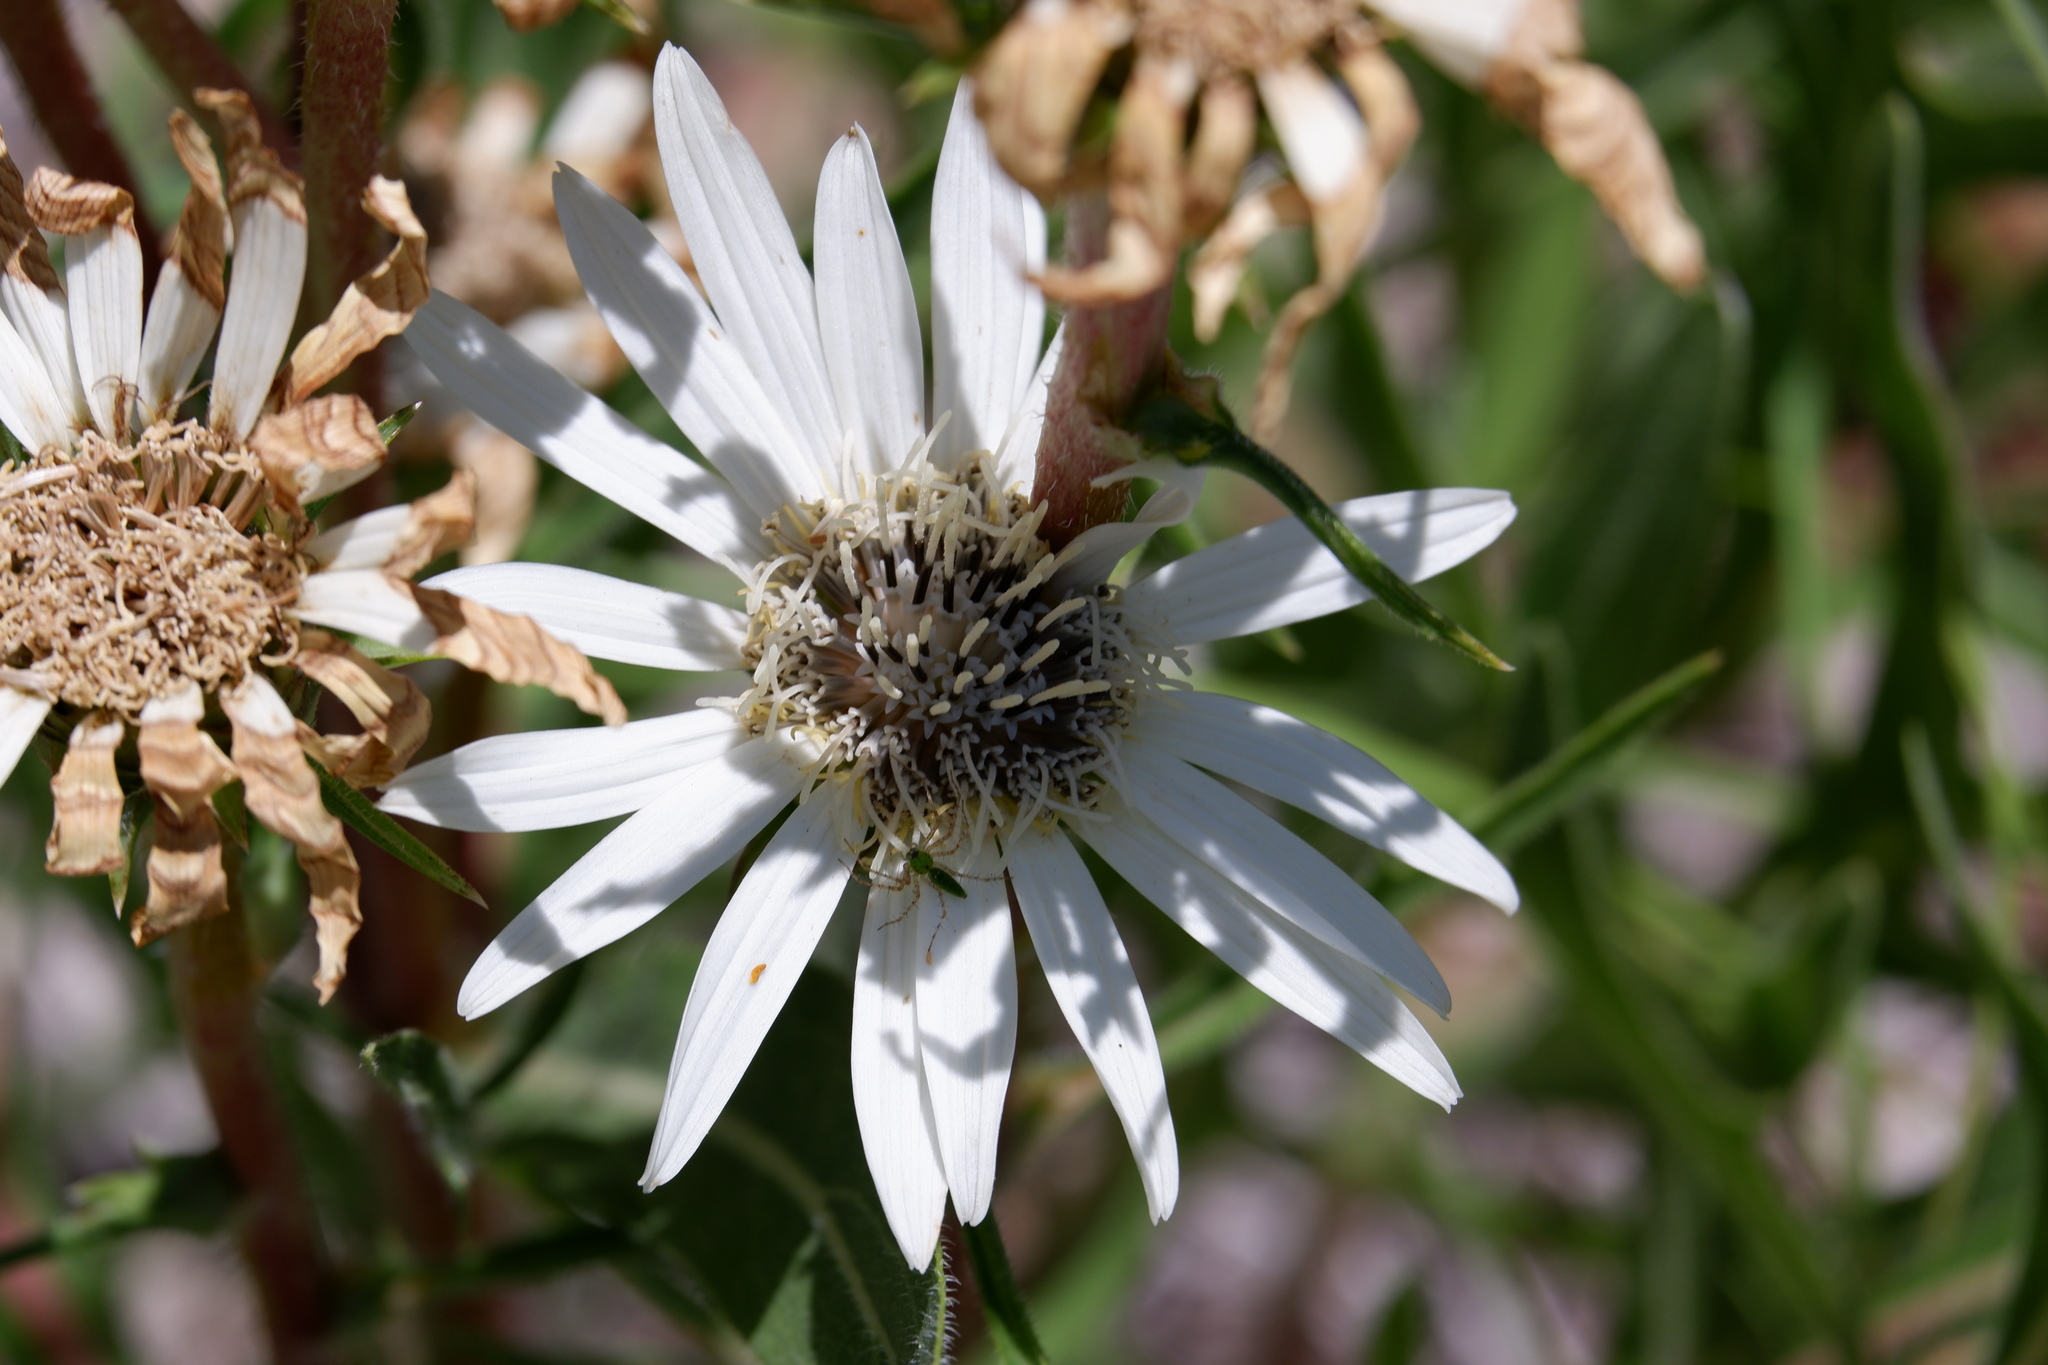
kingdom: Plantae
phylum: Tracheophyta
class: Magnoliopsida
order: Asterales
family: Asteraceae
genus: Silphium
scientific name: Silphium albiflorum
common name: White rosinweed
